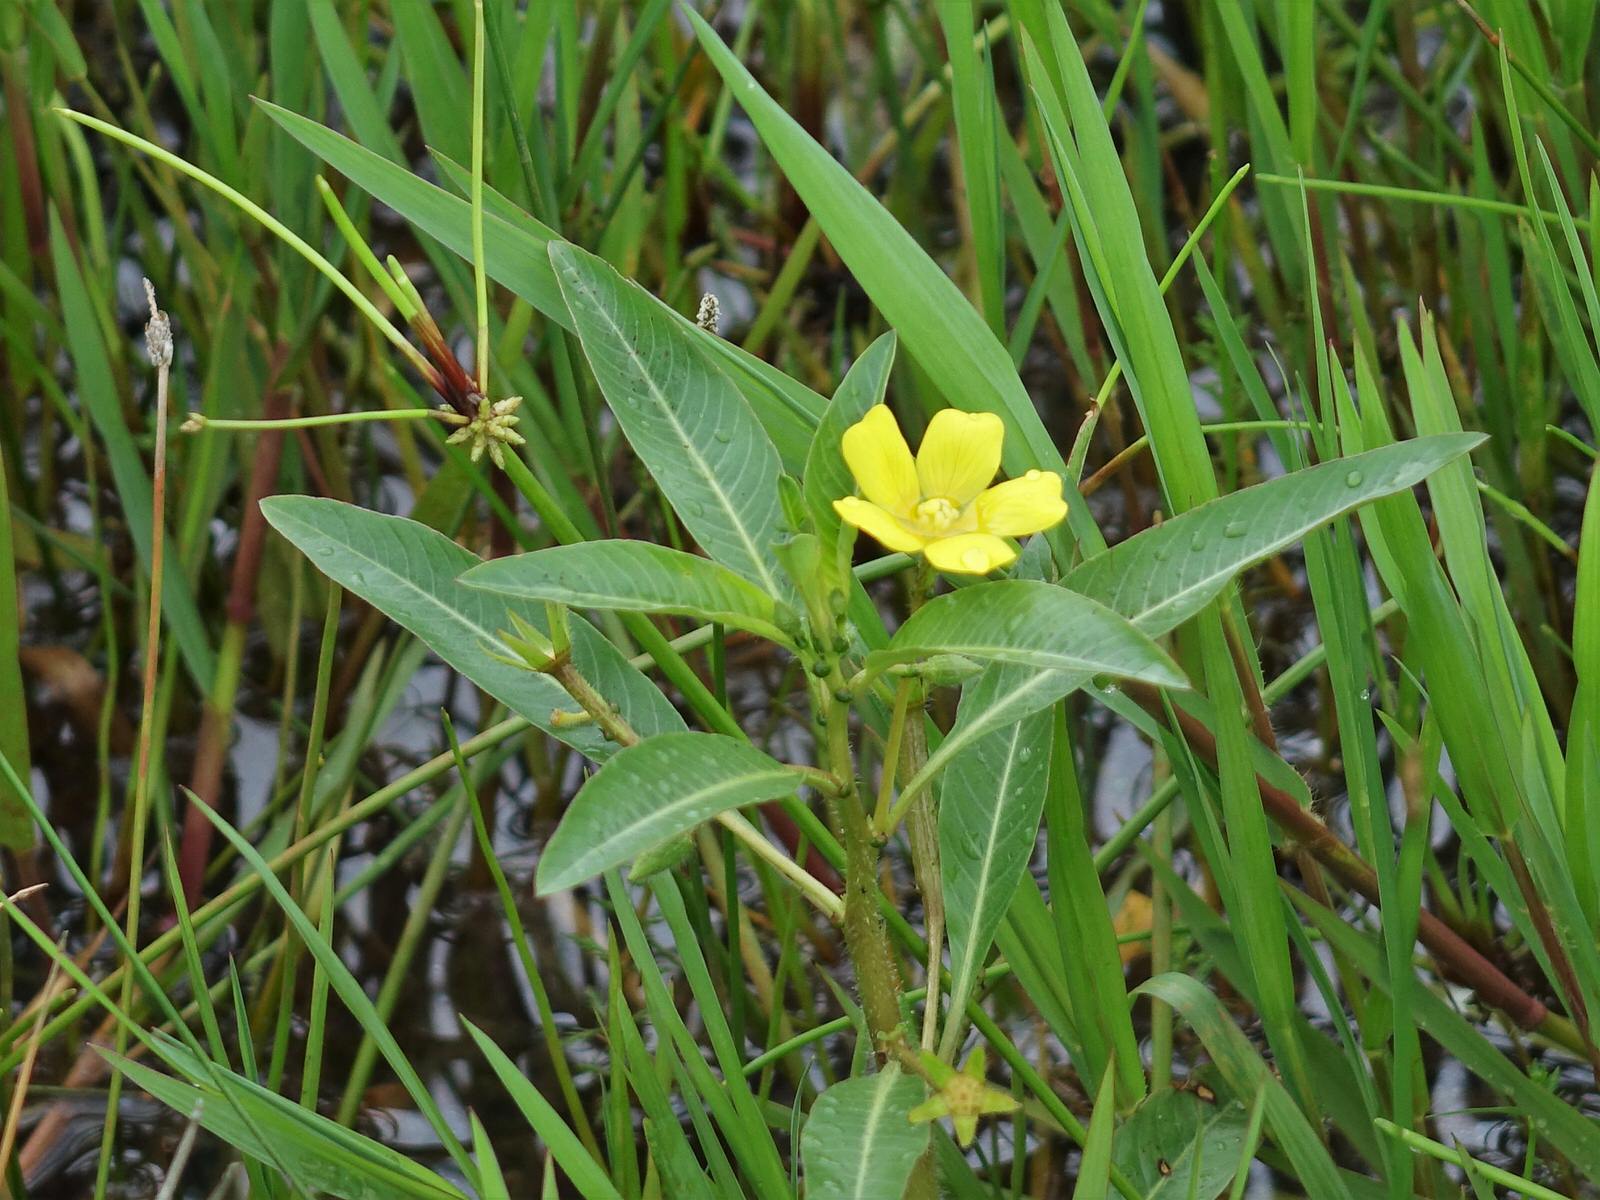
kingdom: Plantae
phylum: Tracheophyta
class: Magnoliopsida
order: Myrtales
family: Onagraceae
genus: Ludwigia
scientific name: Ludwigia peploides
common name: Floating primrose-willow
